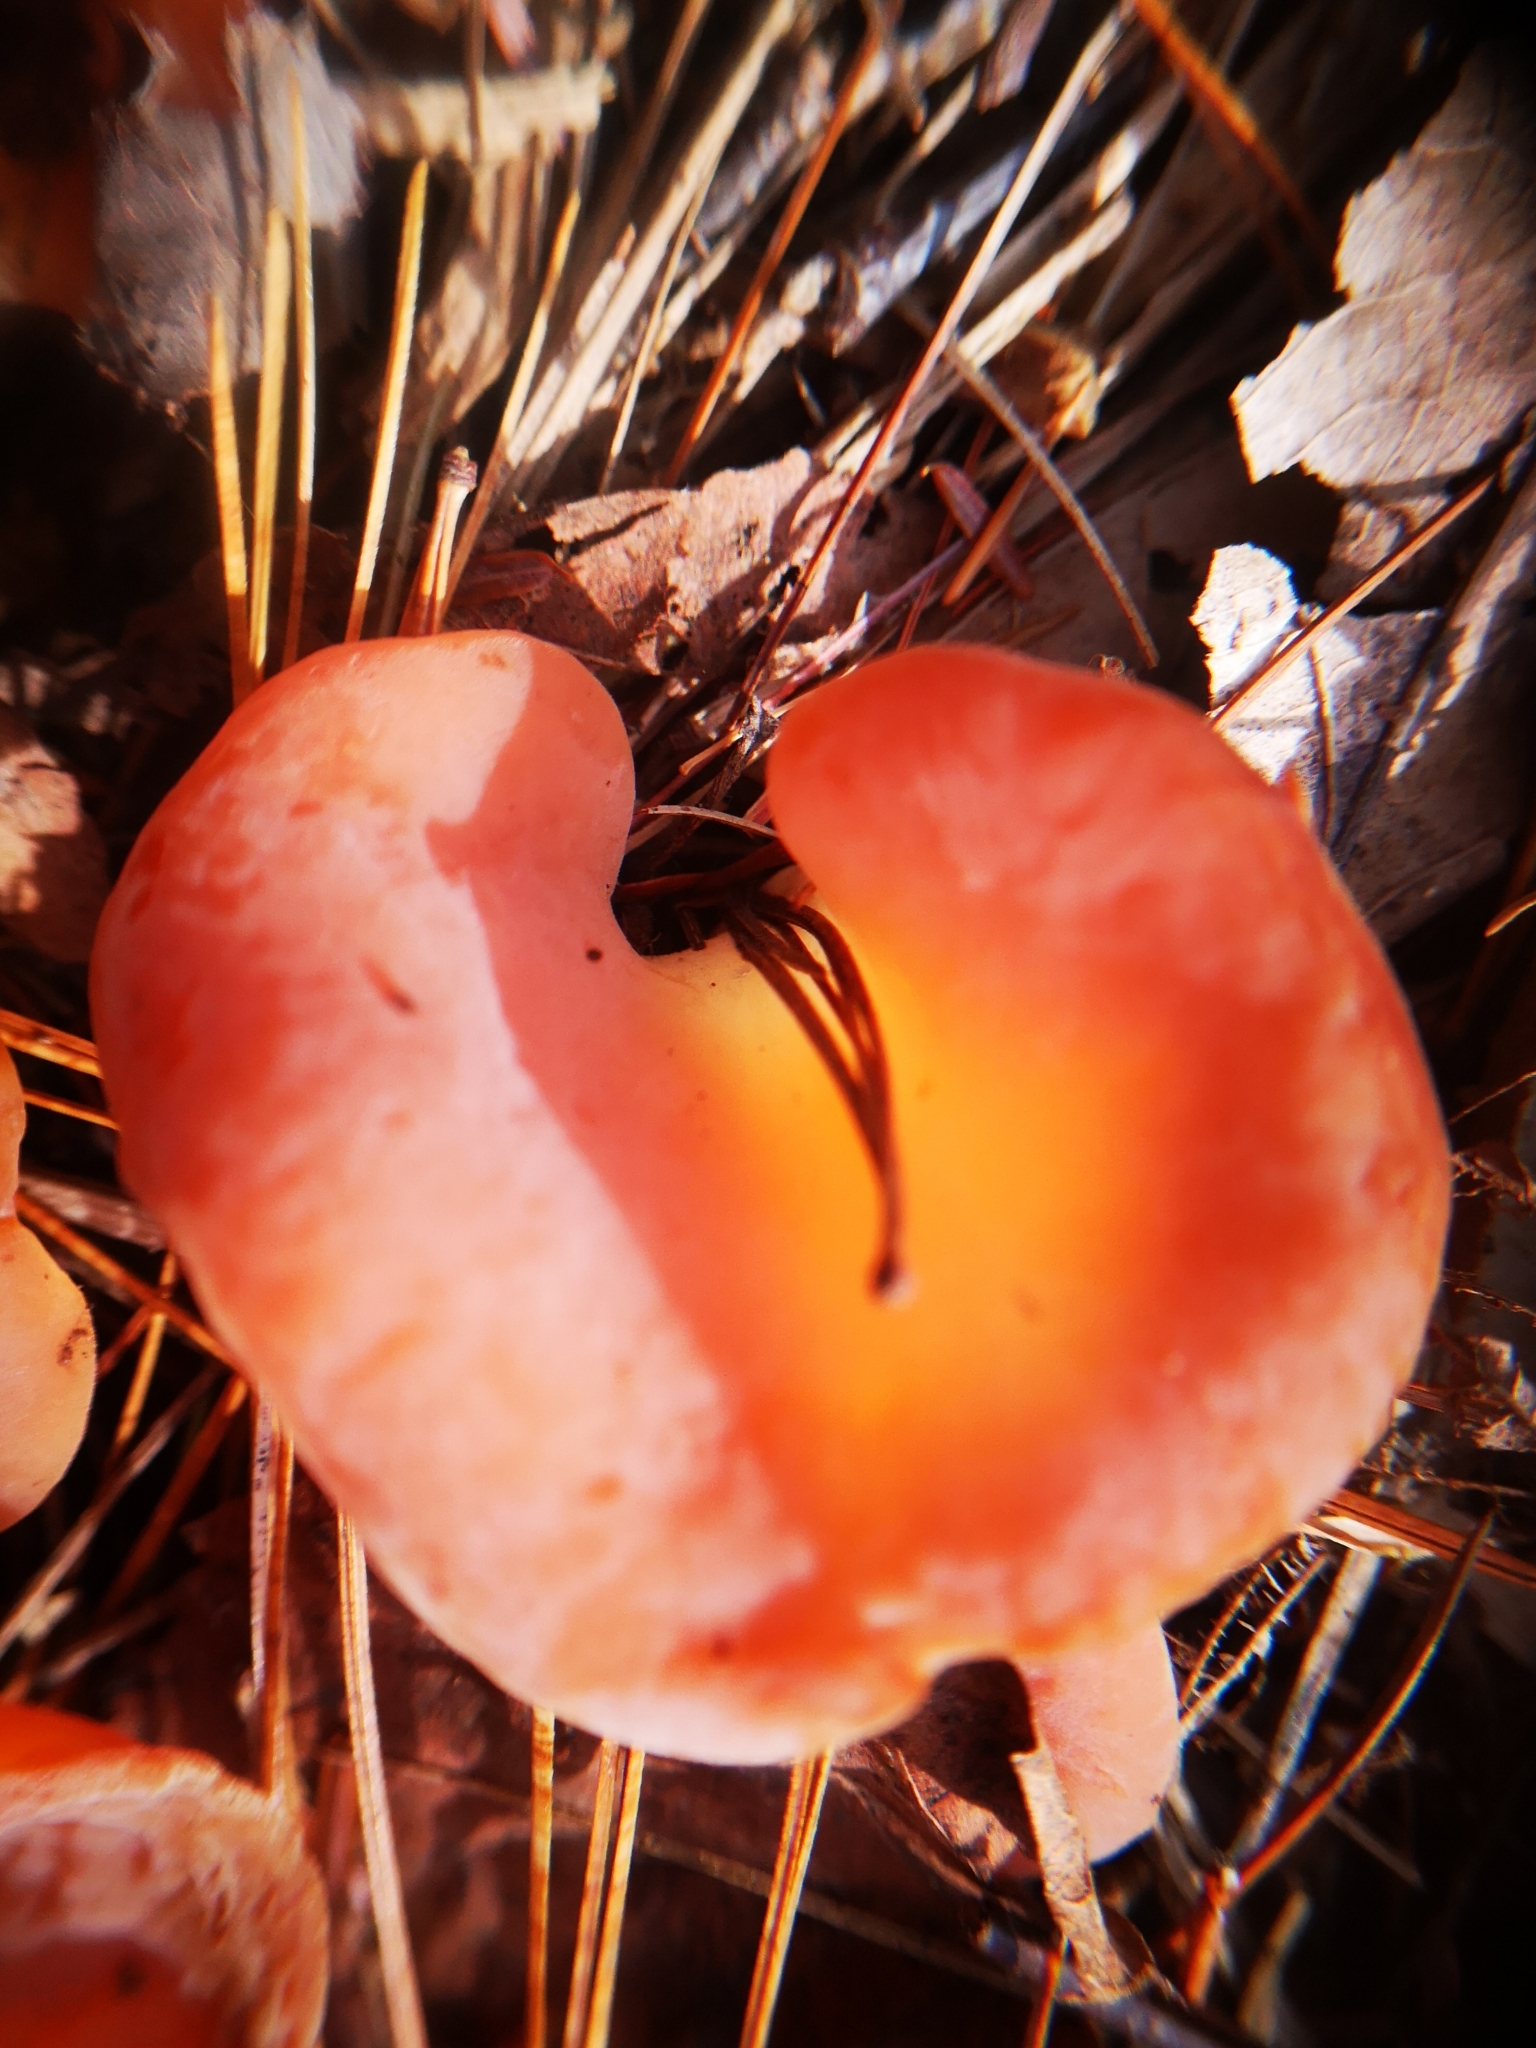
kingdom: Fungi
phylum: Basidiomycota
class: Agaricomycetes
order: Auriculariales
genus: Guepinia
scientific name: Guepinia helvelloides
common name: Salmon salad
